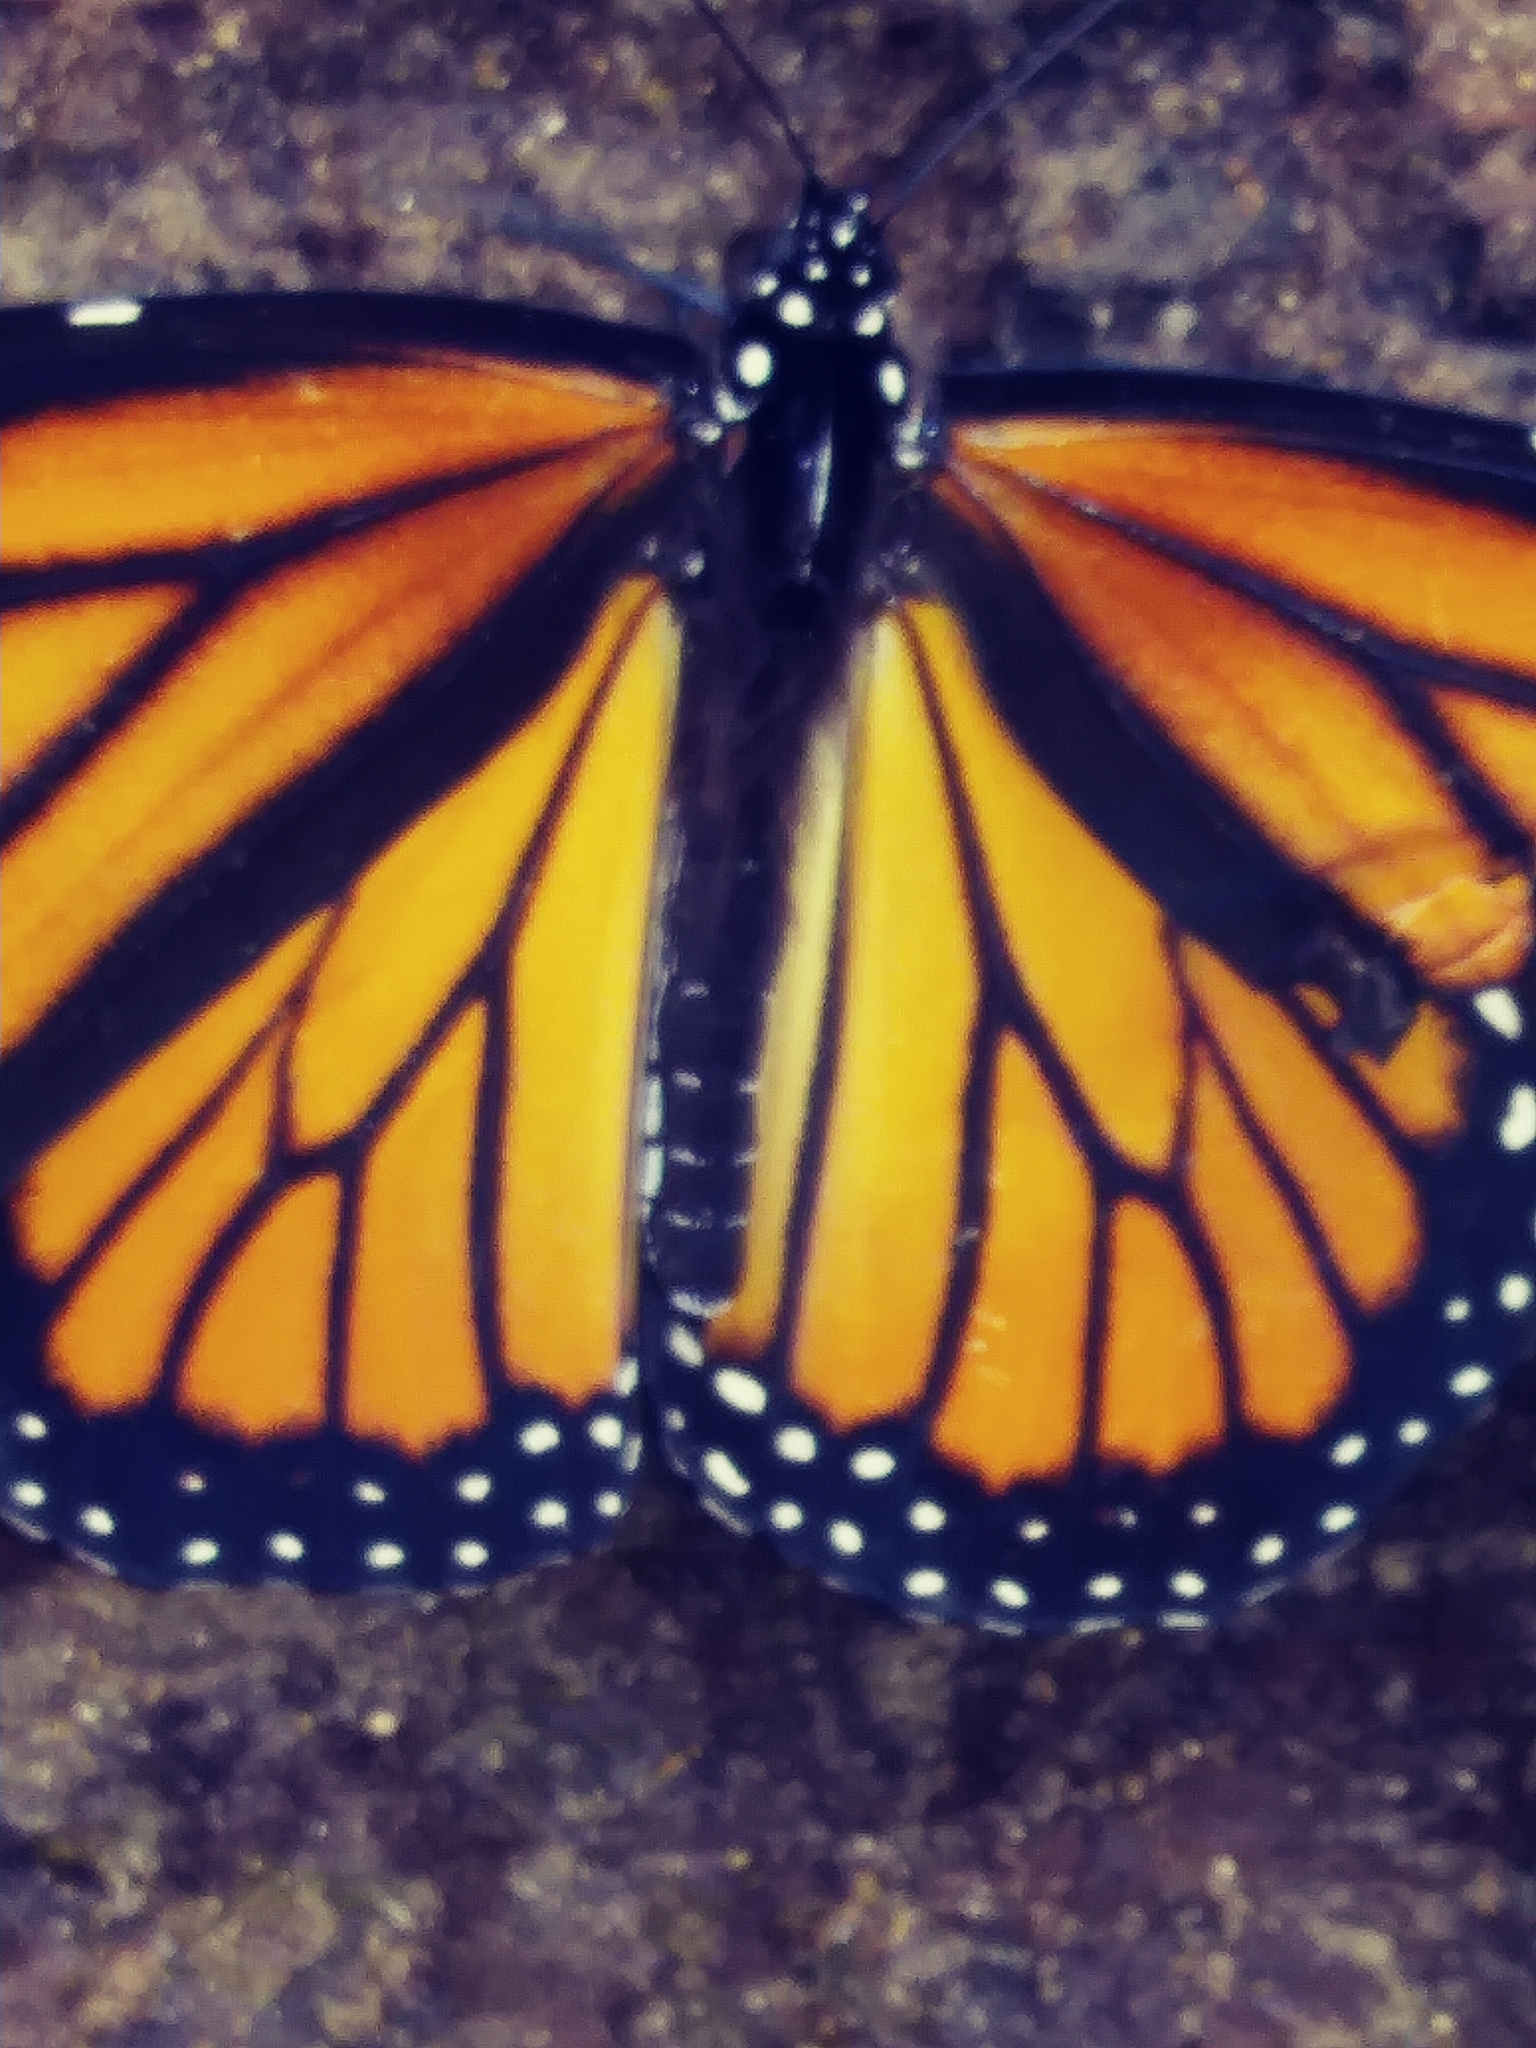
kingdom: Animalia
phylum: Arthropoda
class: Insecta
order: Lepidoptera
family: Nymphalidae
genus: Danaus
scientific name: Danaus plexippus
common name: Monarch
